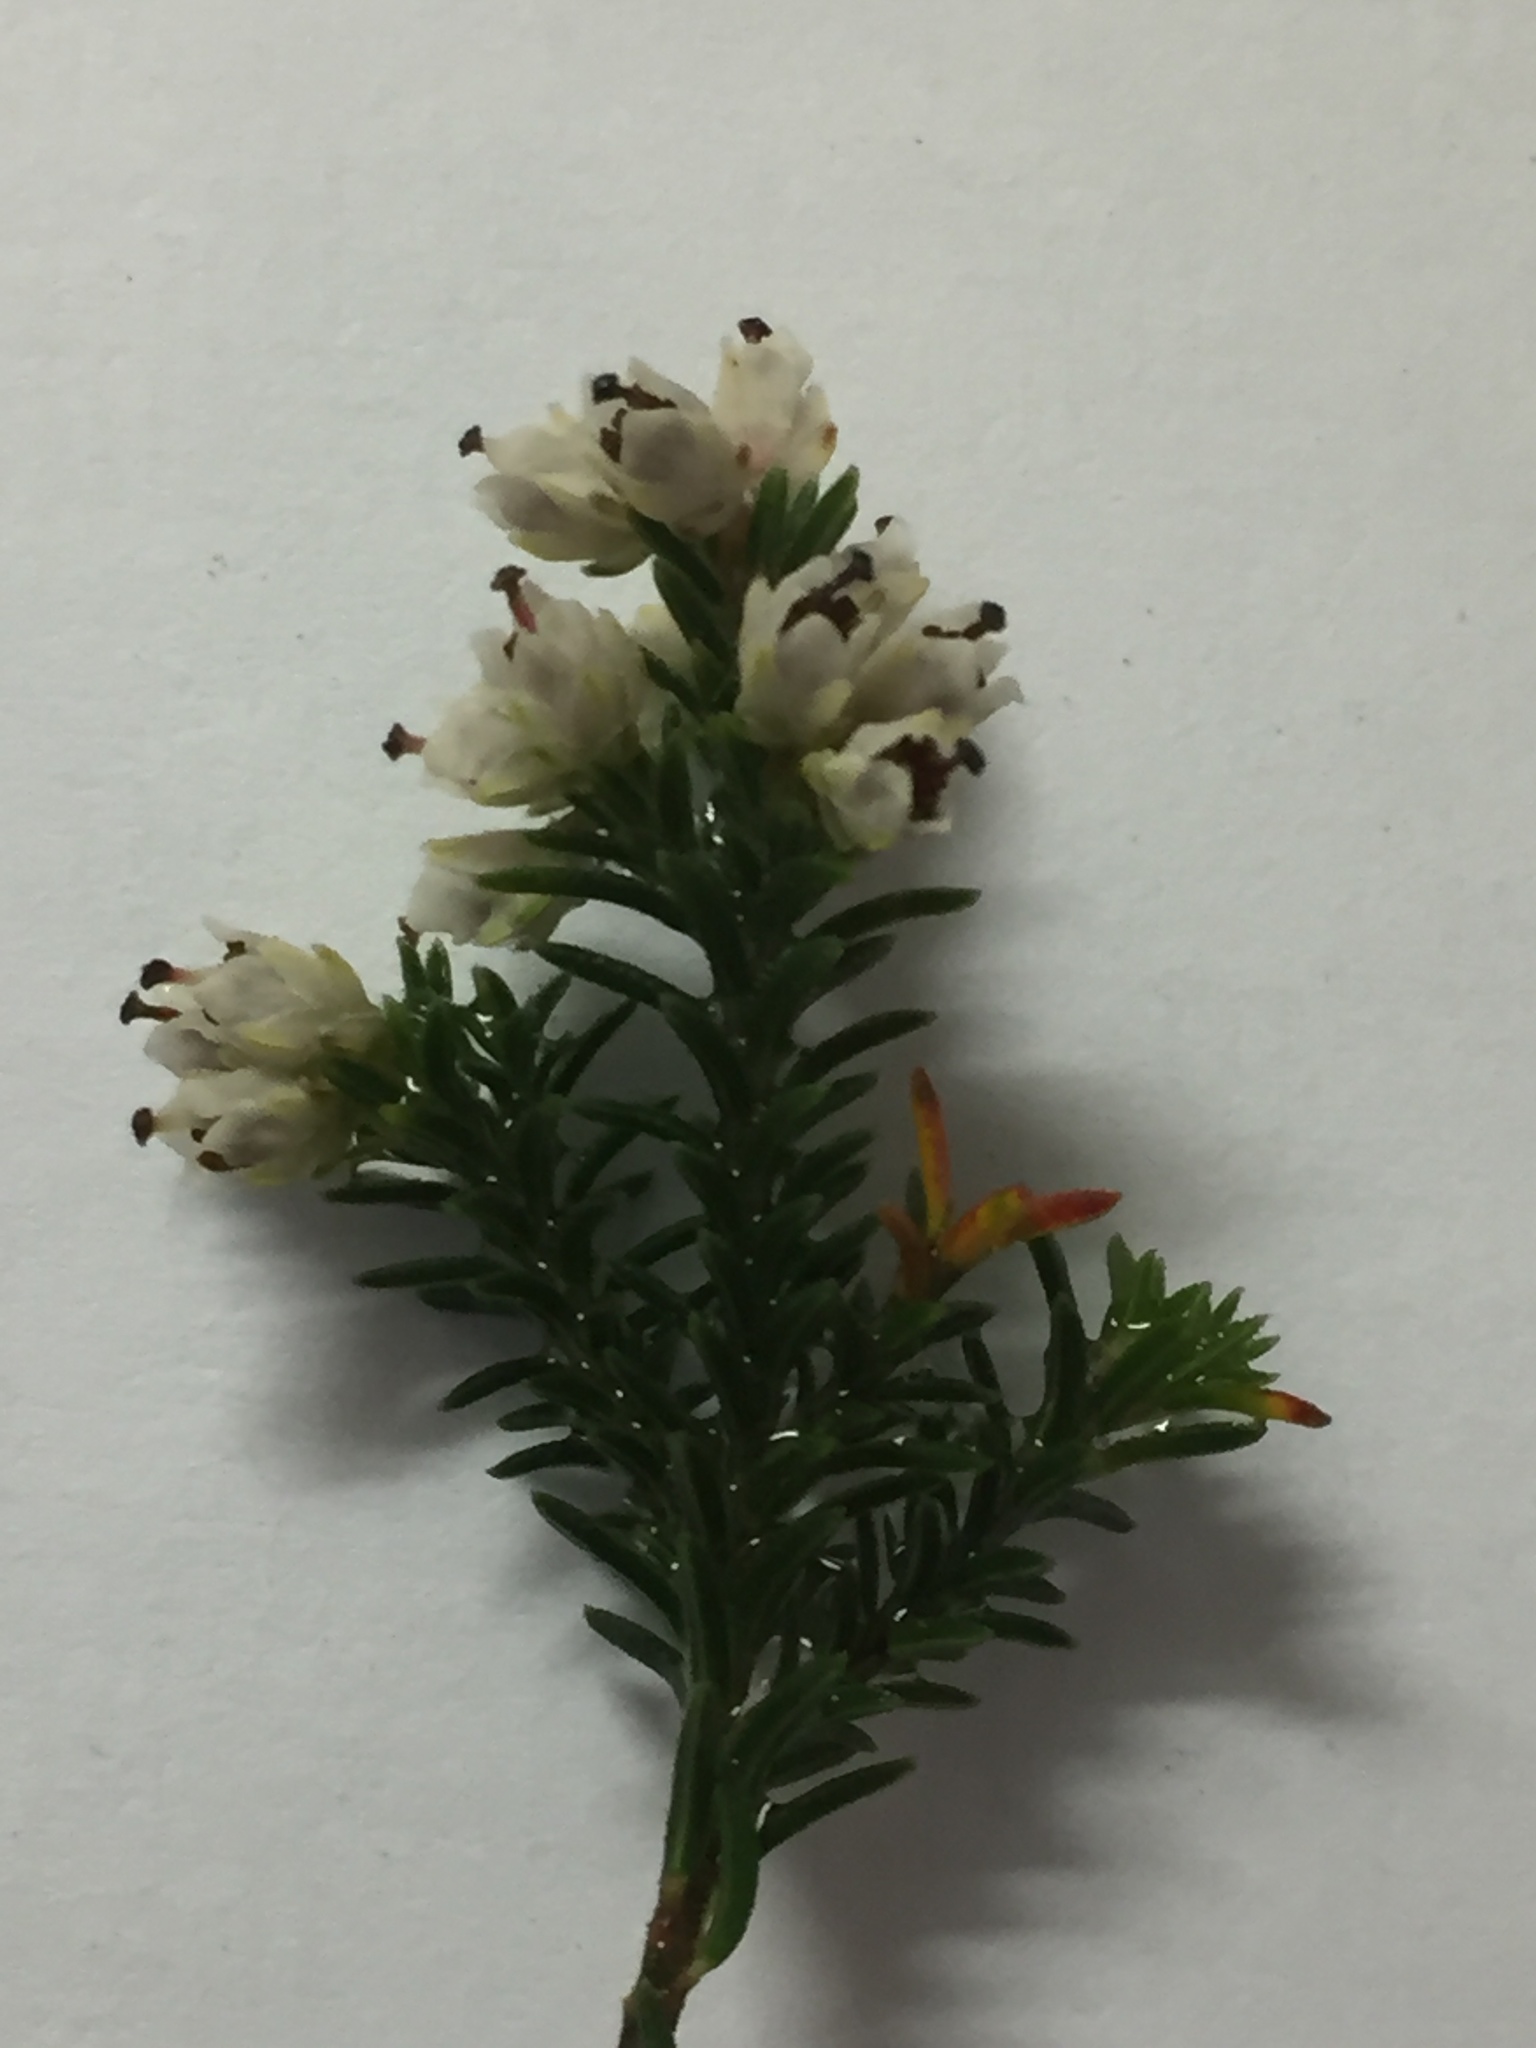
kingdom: Plantae
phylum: Tracheophyta
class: Magnoliopsida
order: Ericales
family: Ericaceae
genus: Erica
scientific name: Erica diosmifolia
